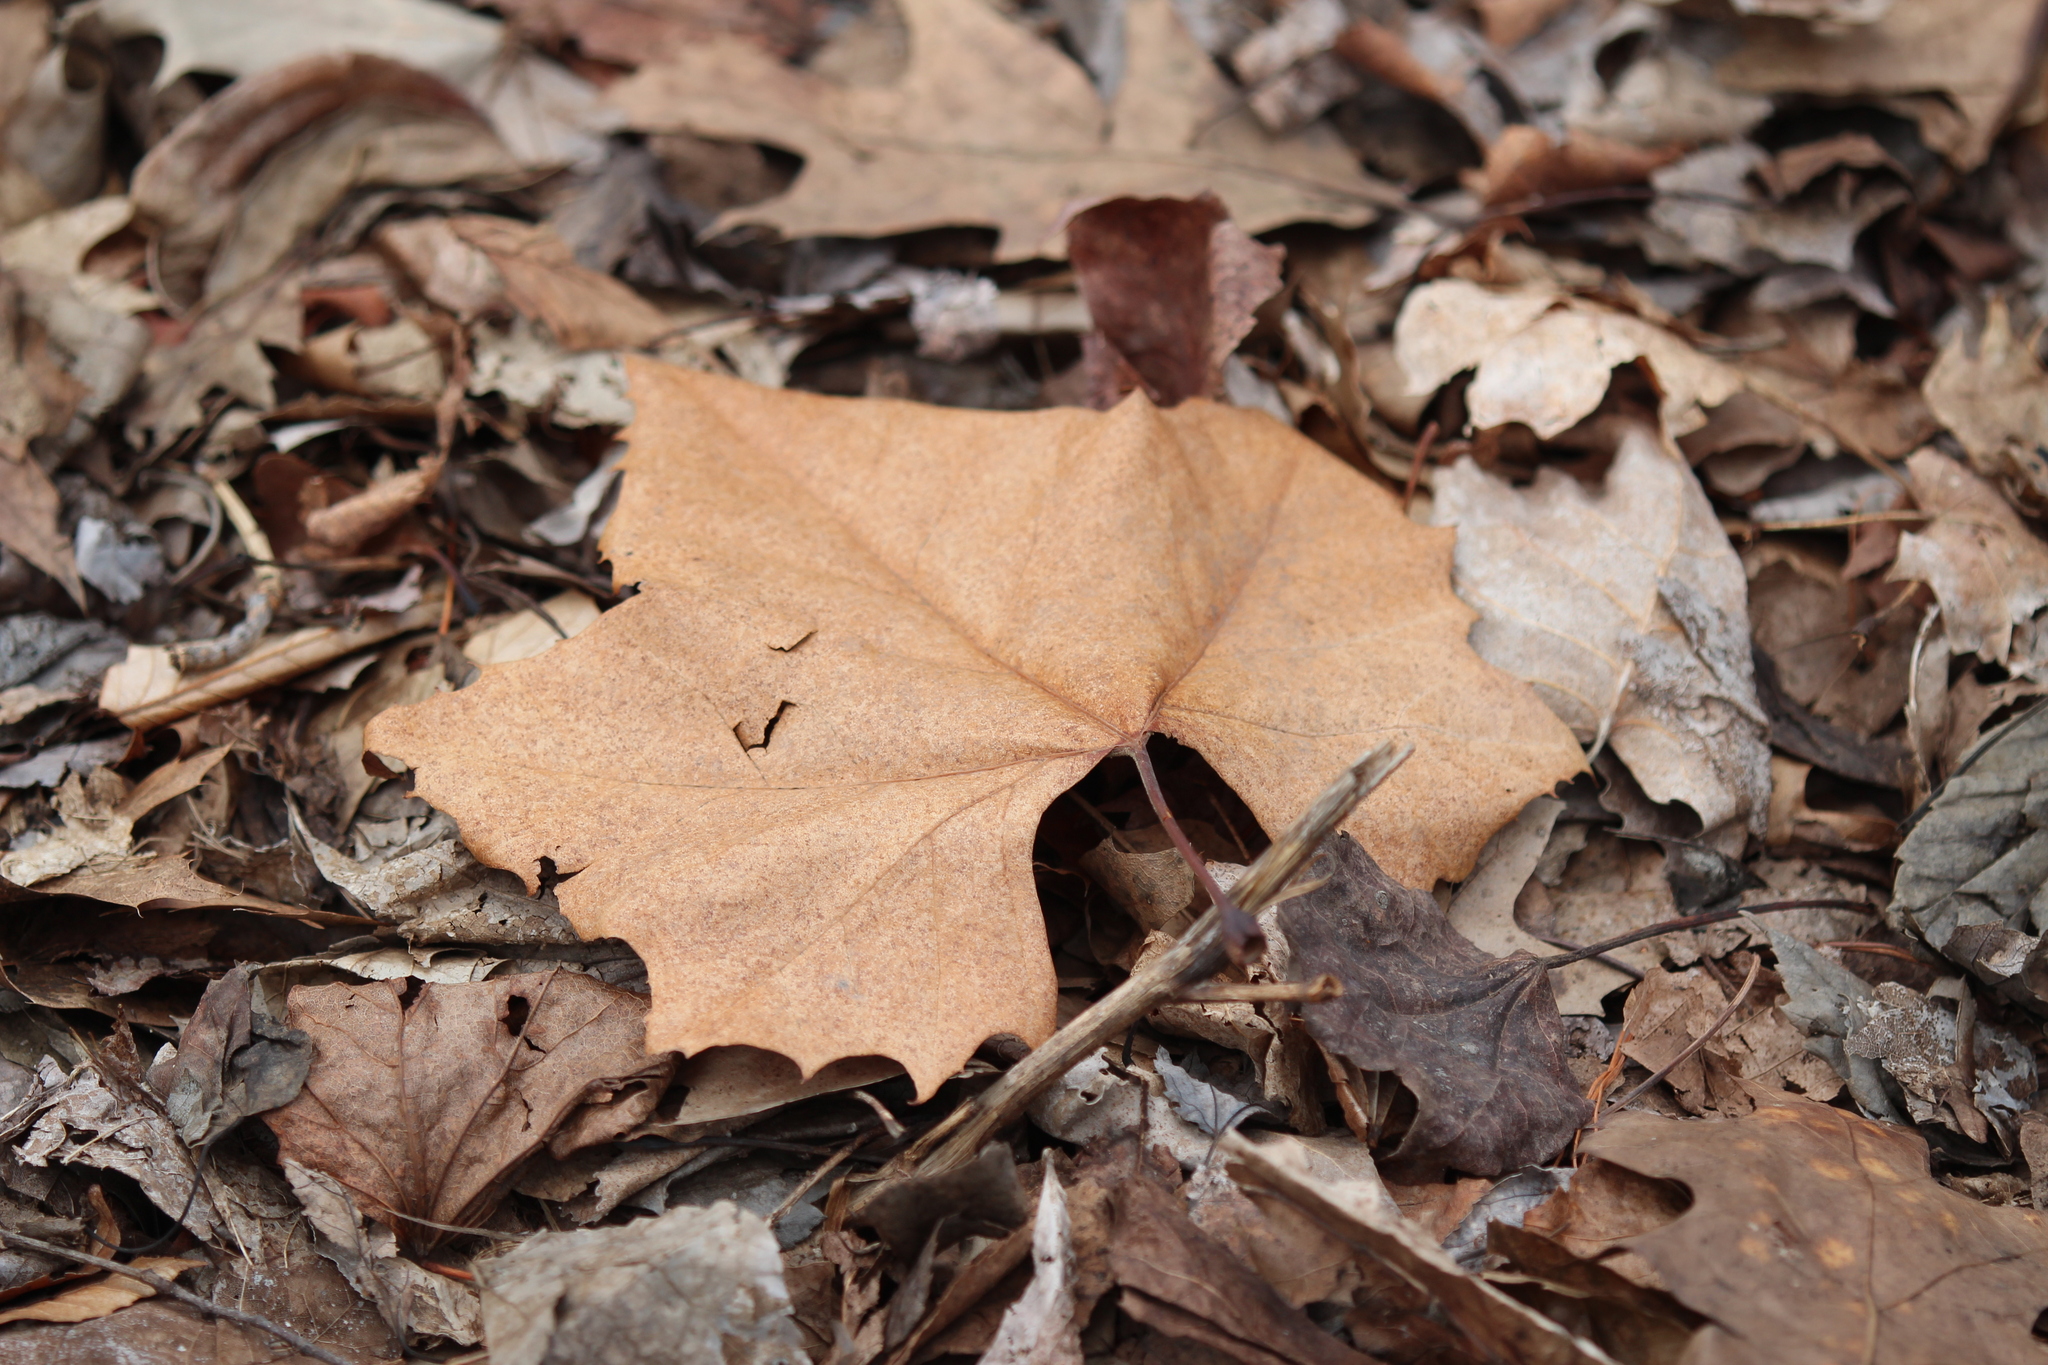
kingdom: Plantae
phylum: Tracheophyta
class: Magnoliopsida
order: Proteales
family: Platanaceae
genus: Platanus
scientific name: Platanus occidentalis
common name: American sycamore
